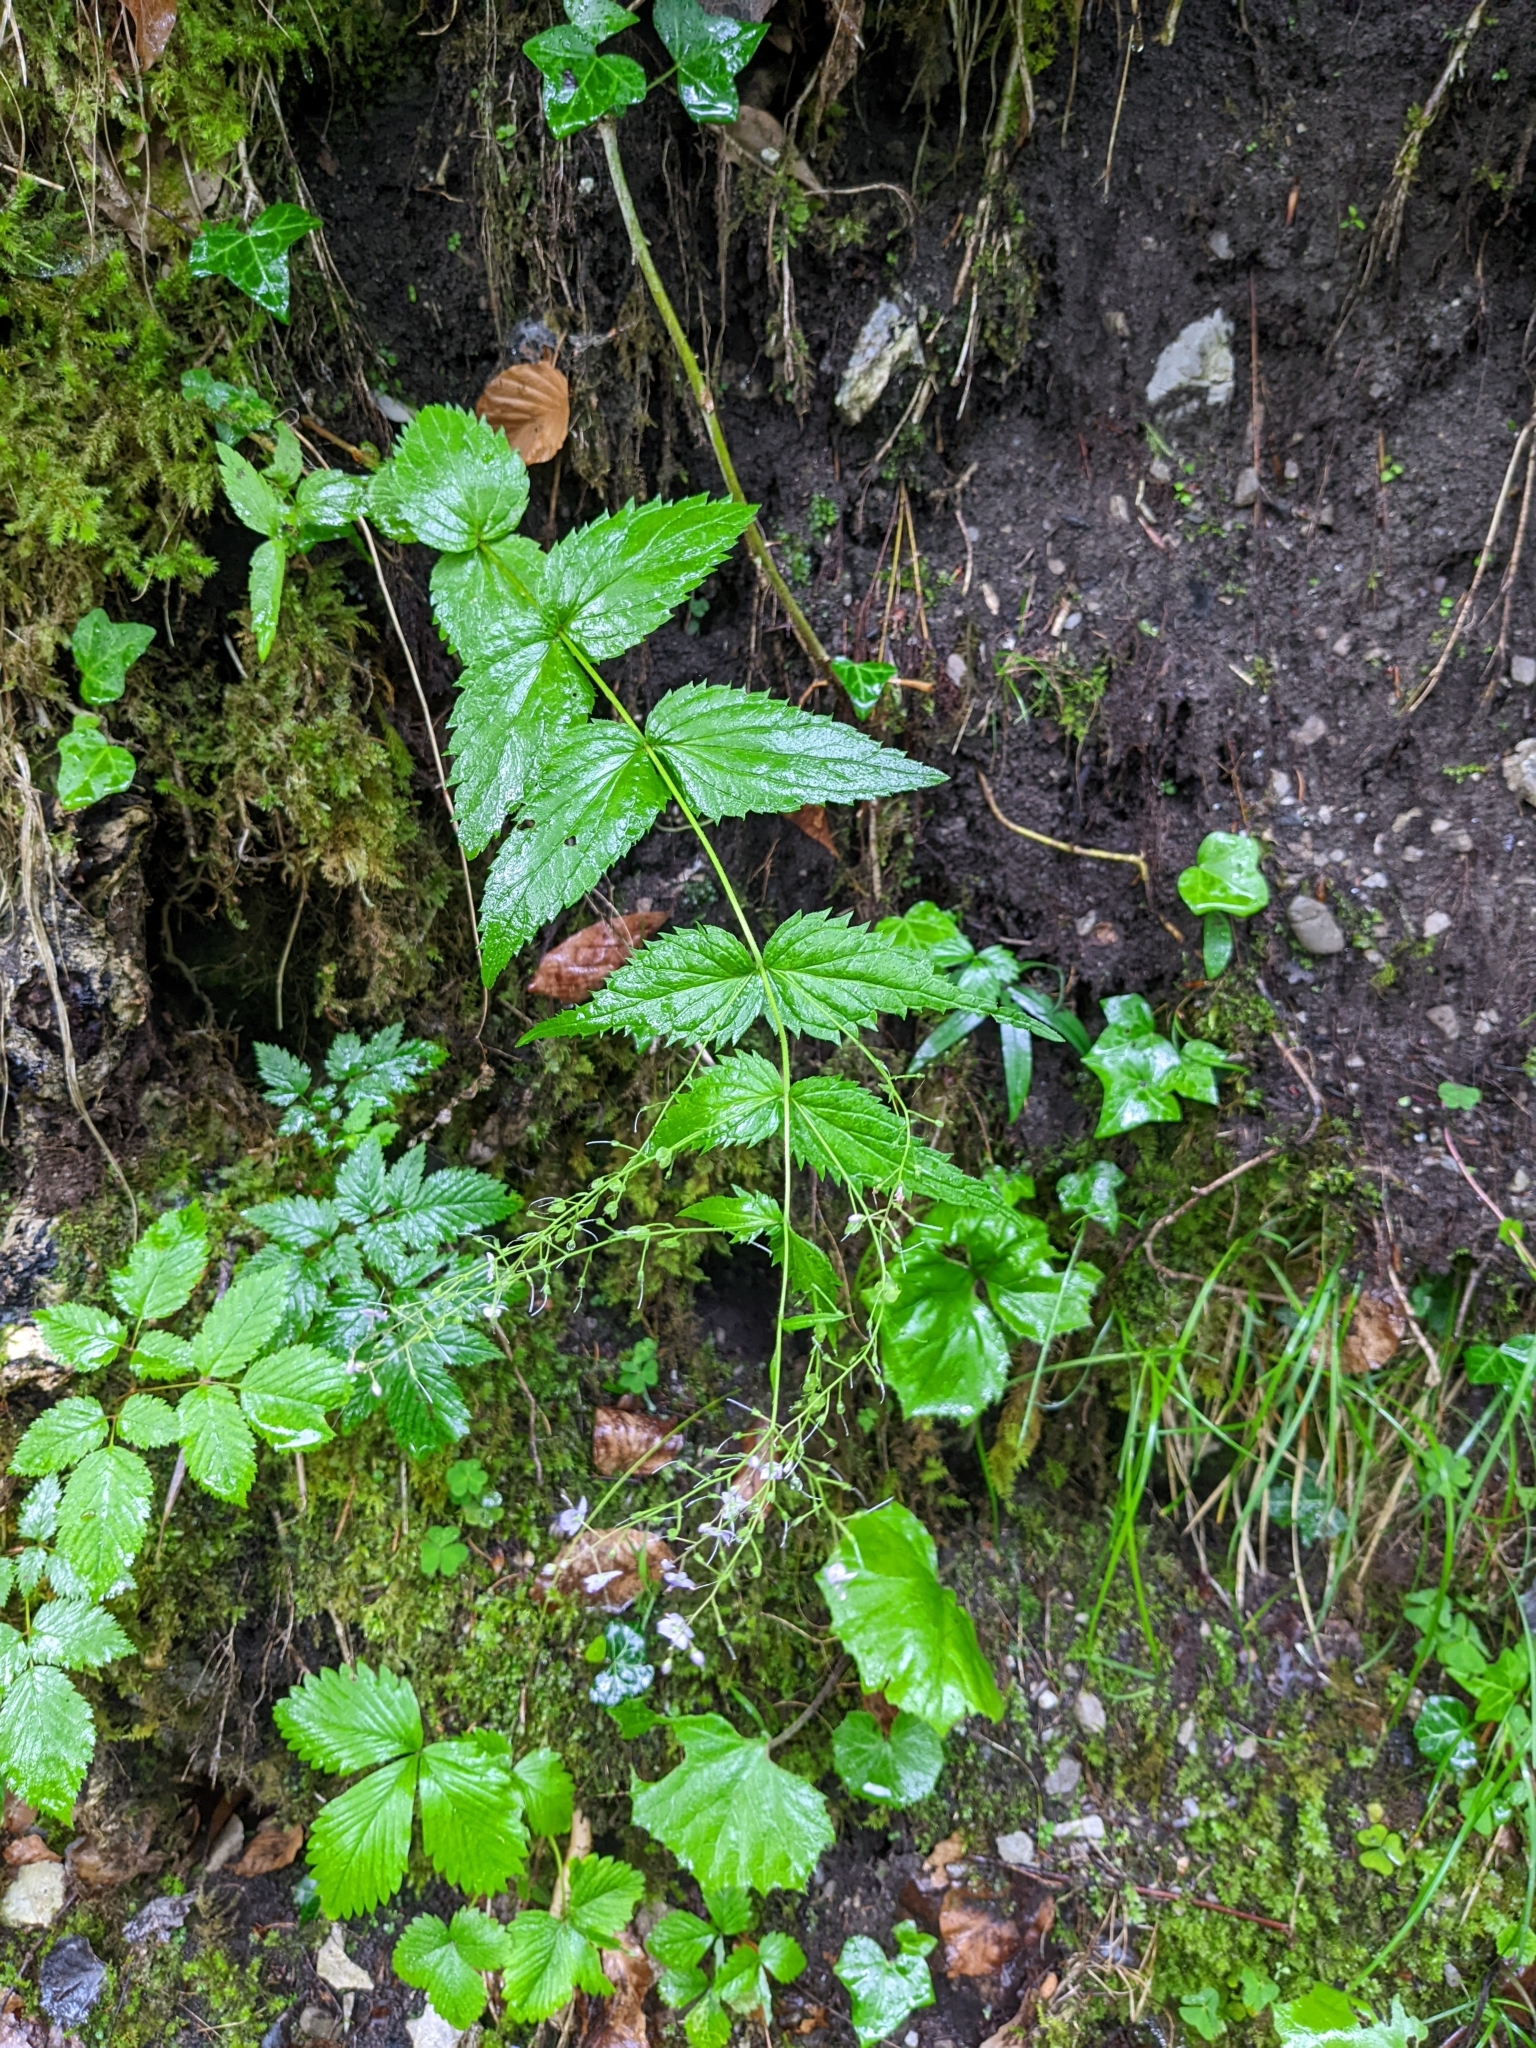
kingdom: Plantae
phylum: Tracheophyta
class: Magnoliopsida
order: Lamiales
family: Plantaginaceae
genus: Veronica
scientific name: Veronica urticifolia
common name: Nettle-leaf speedwell
